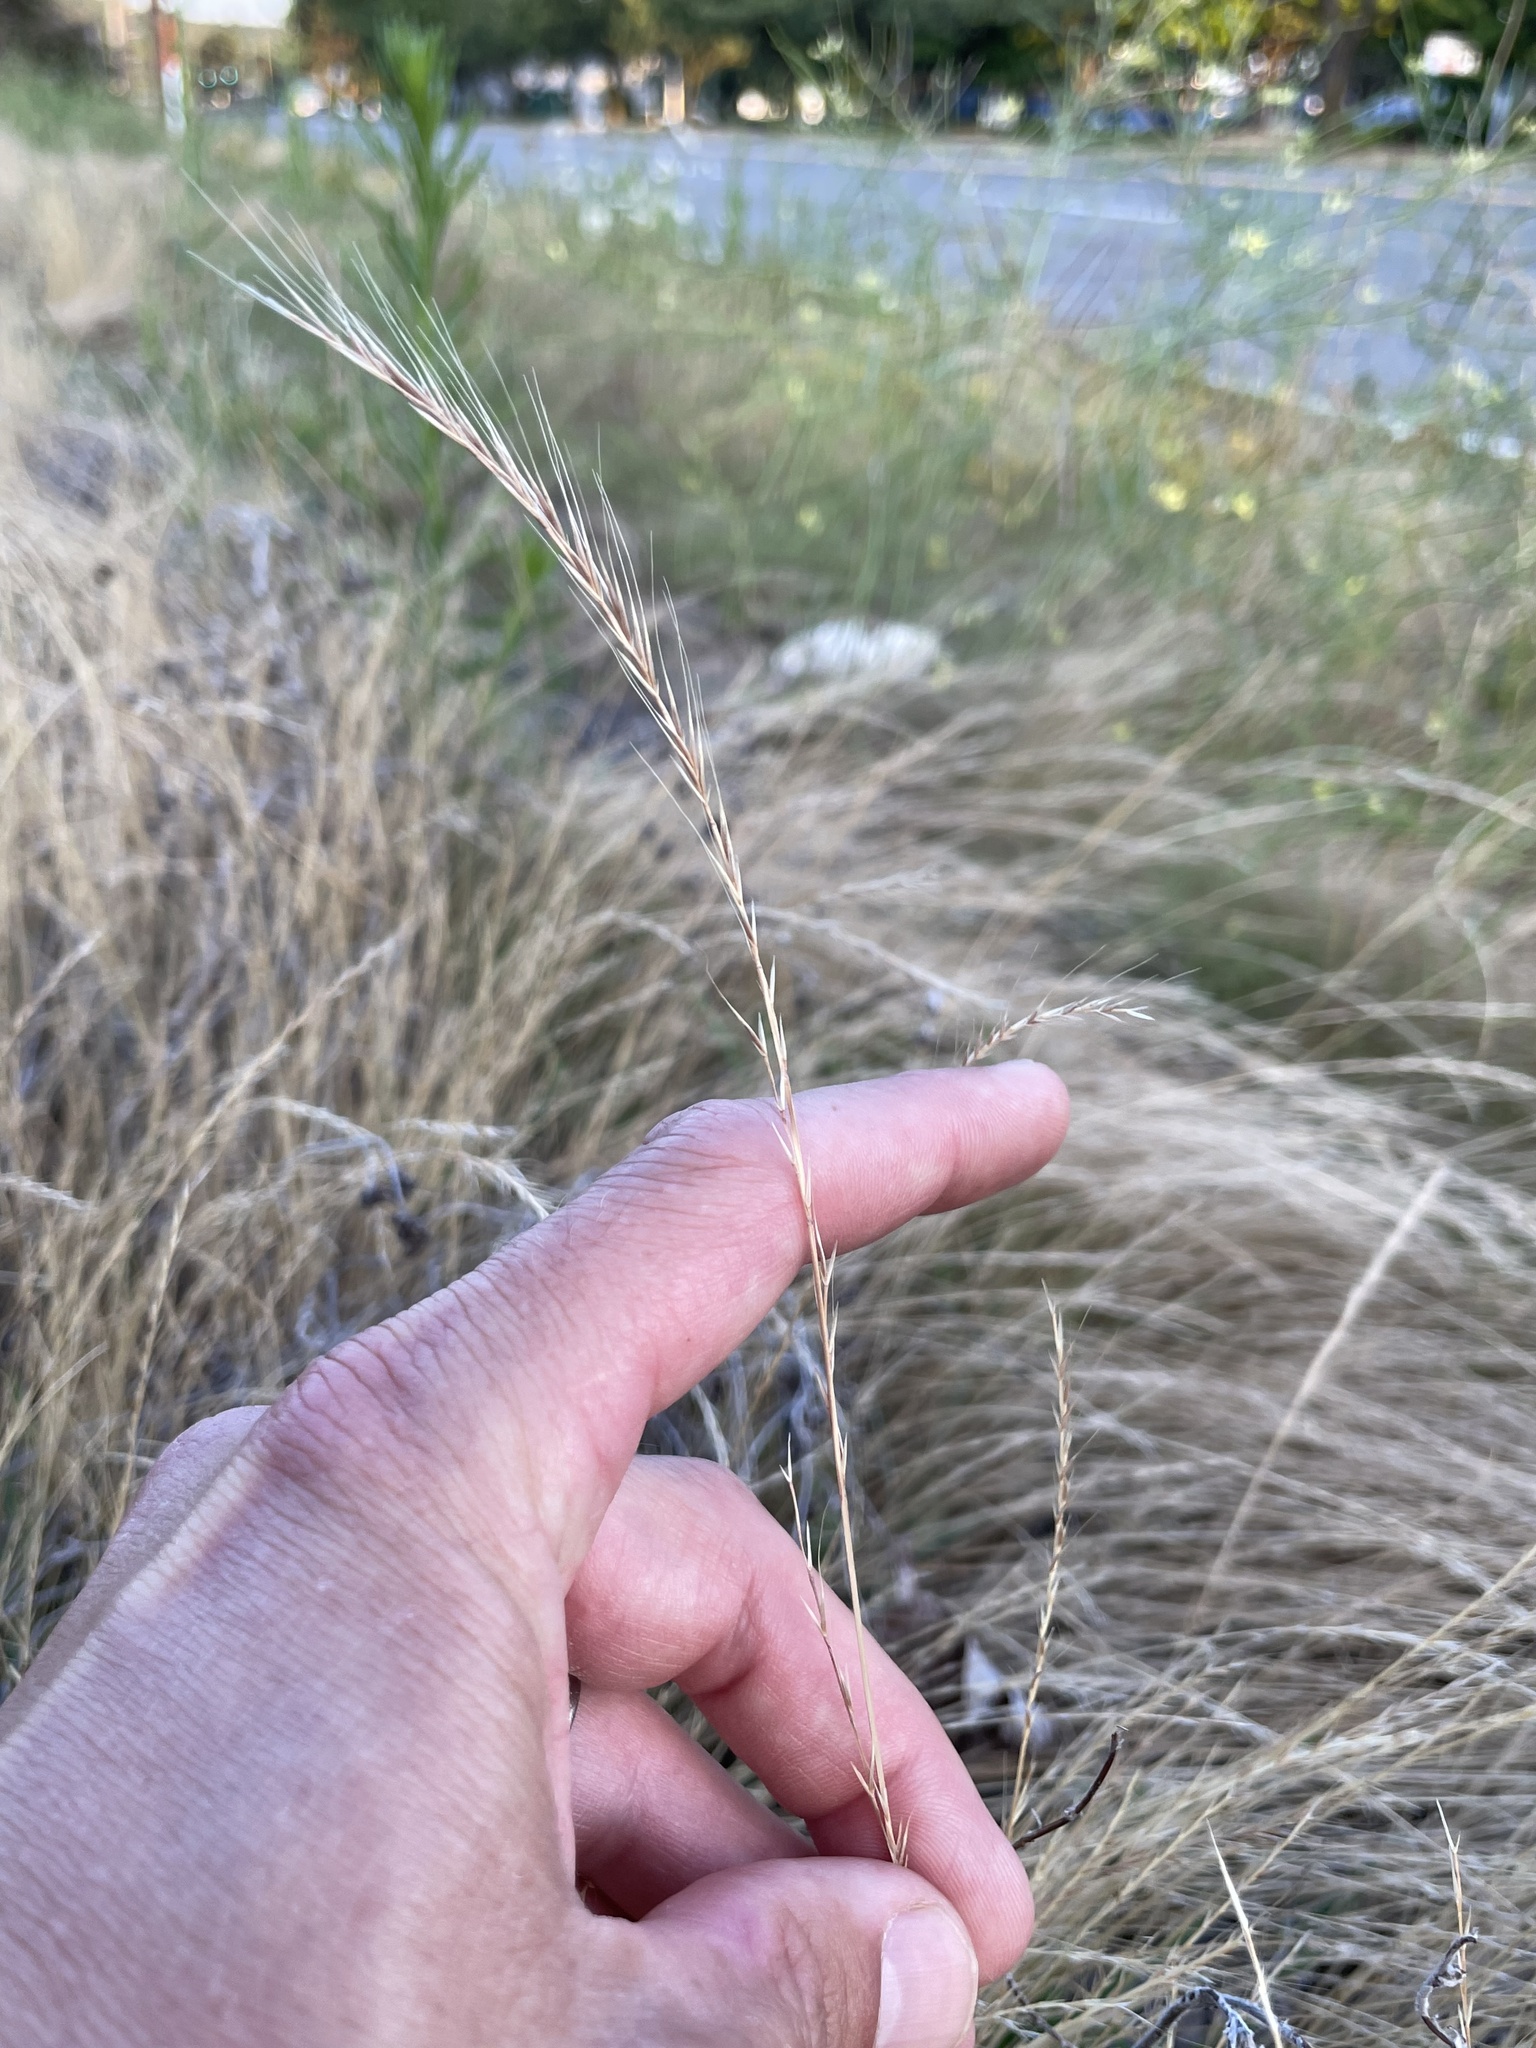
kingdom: Plantae
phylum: Tracheophyta
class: Liliopsida
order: Poales
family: Poaceae
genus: Festuca
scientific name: Festuca myuros
